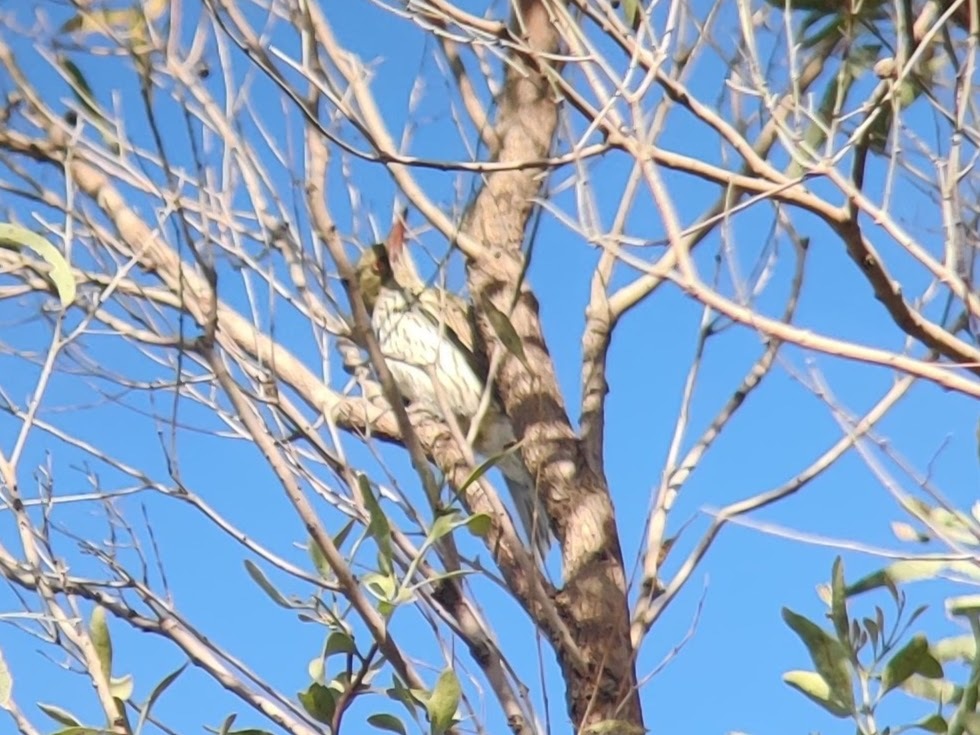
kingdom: Animalia
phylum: Chordata
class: Aves
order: Passeriformes
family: Oriolidae
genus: Oriolus
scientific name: Oriolus sagittatus
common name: Olive-backed oriole
